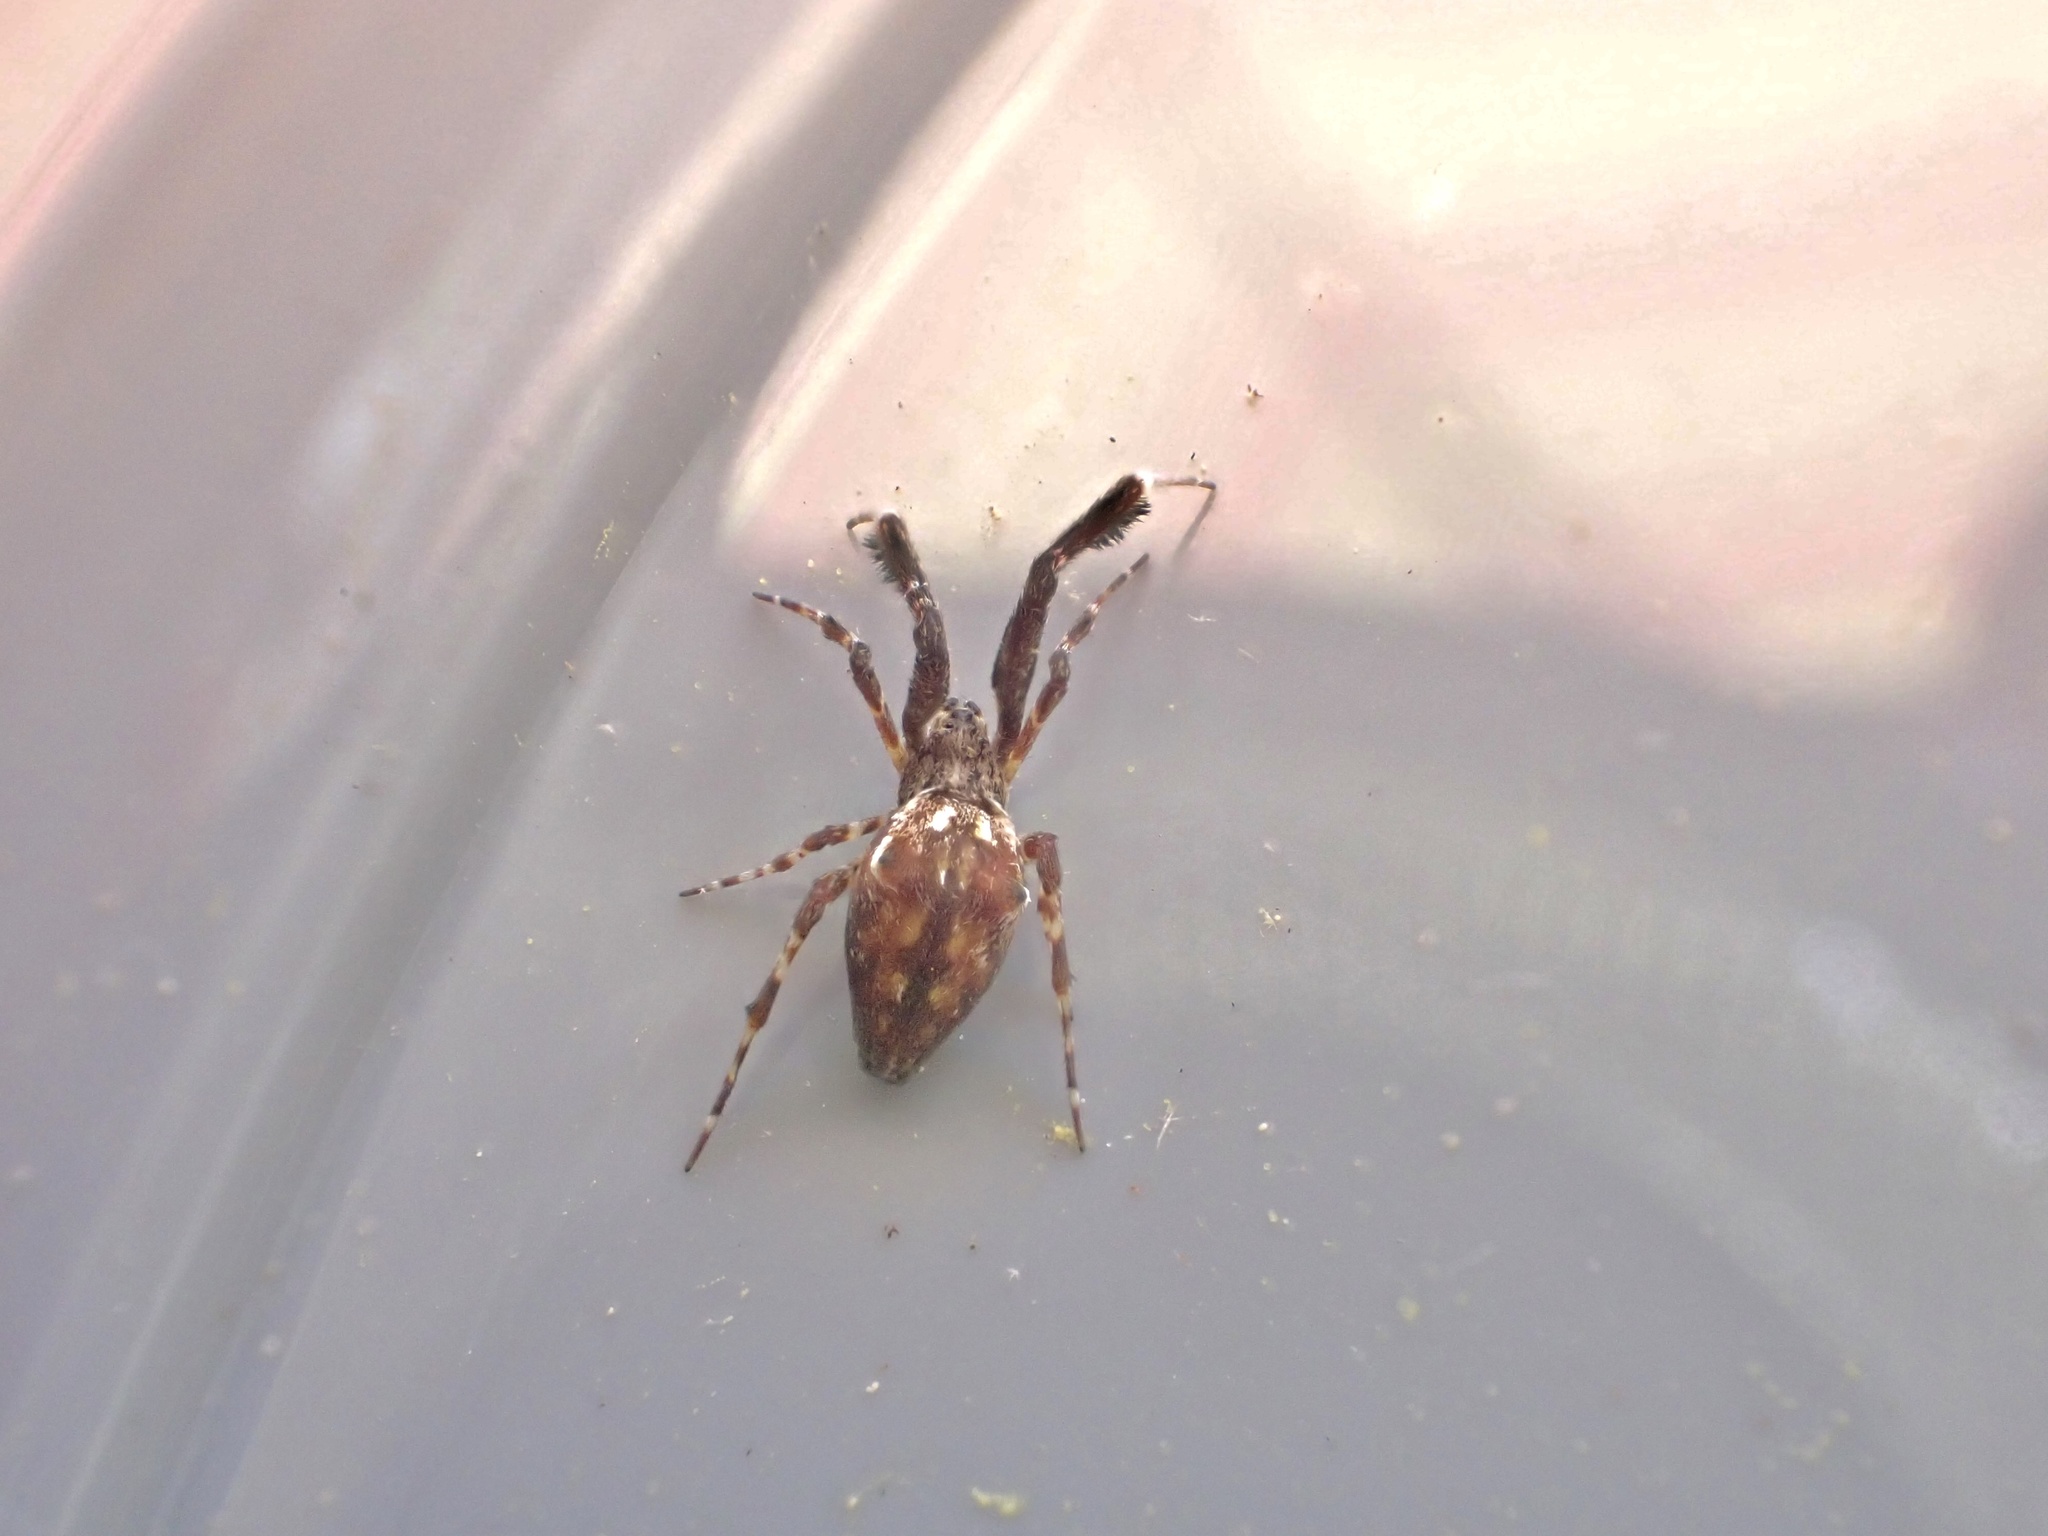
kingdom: Animalia
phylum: Arthropoda
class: Arachnida
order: Araneae
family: Uloboridae
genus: Uloborus
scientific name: Uloborus glomosus
